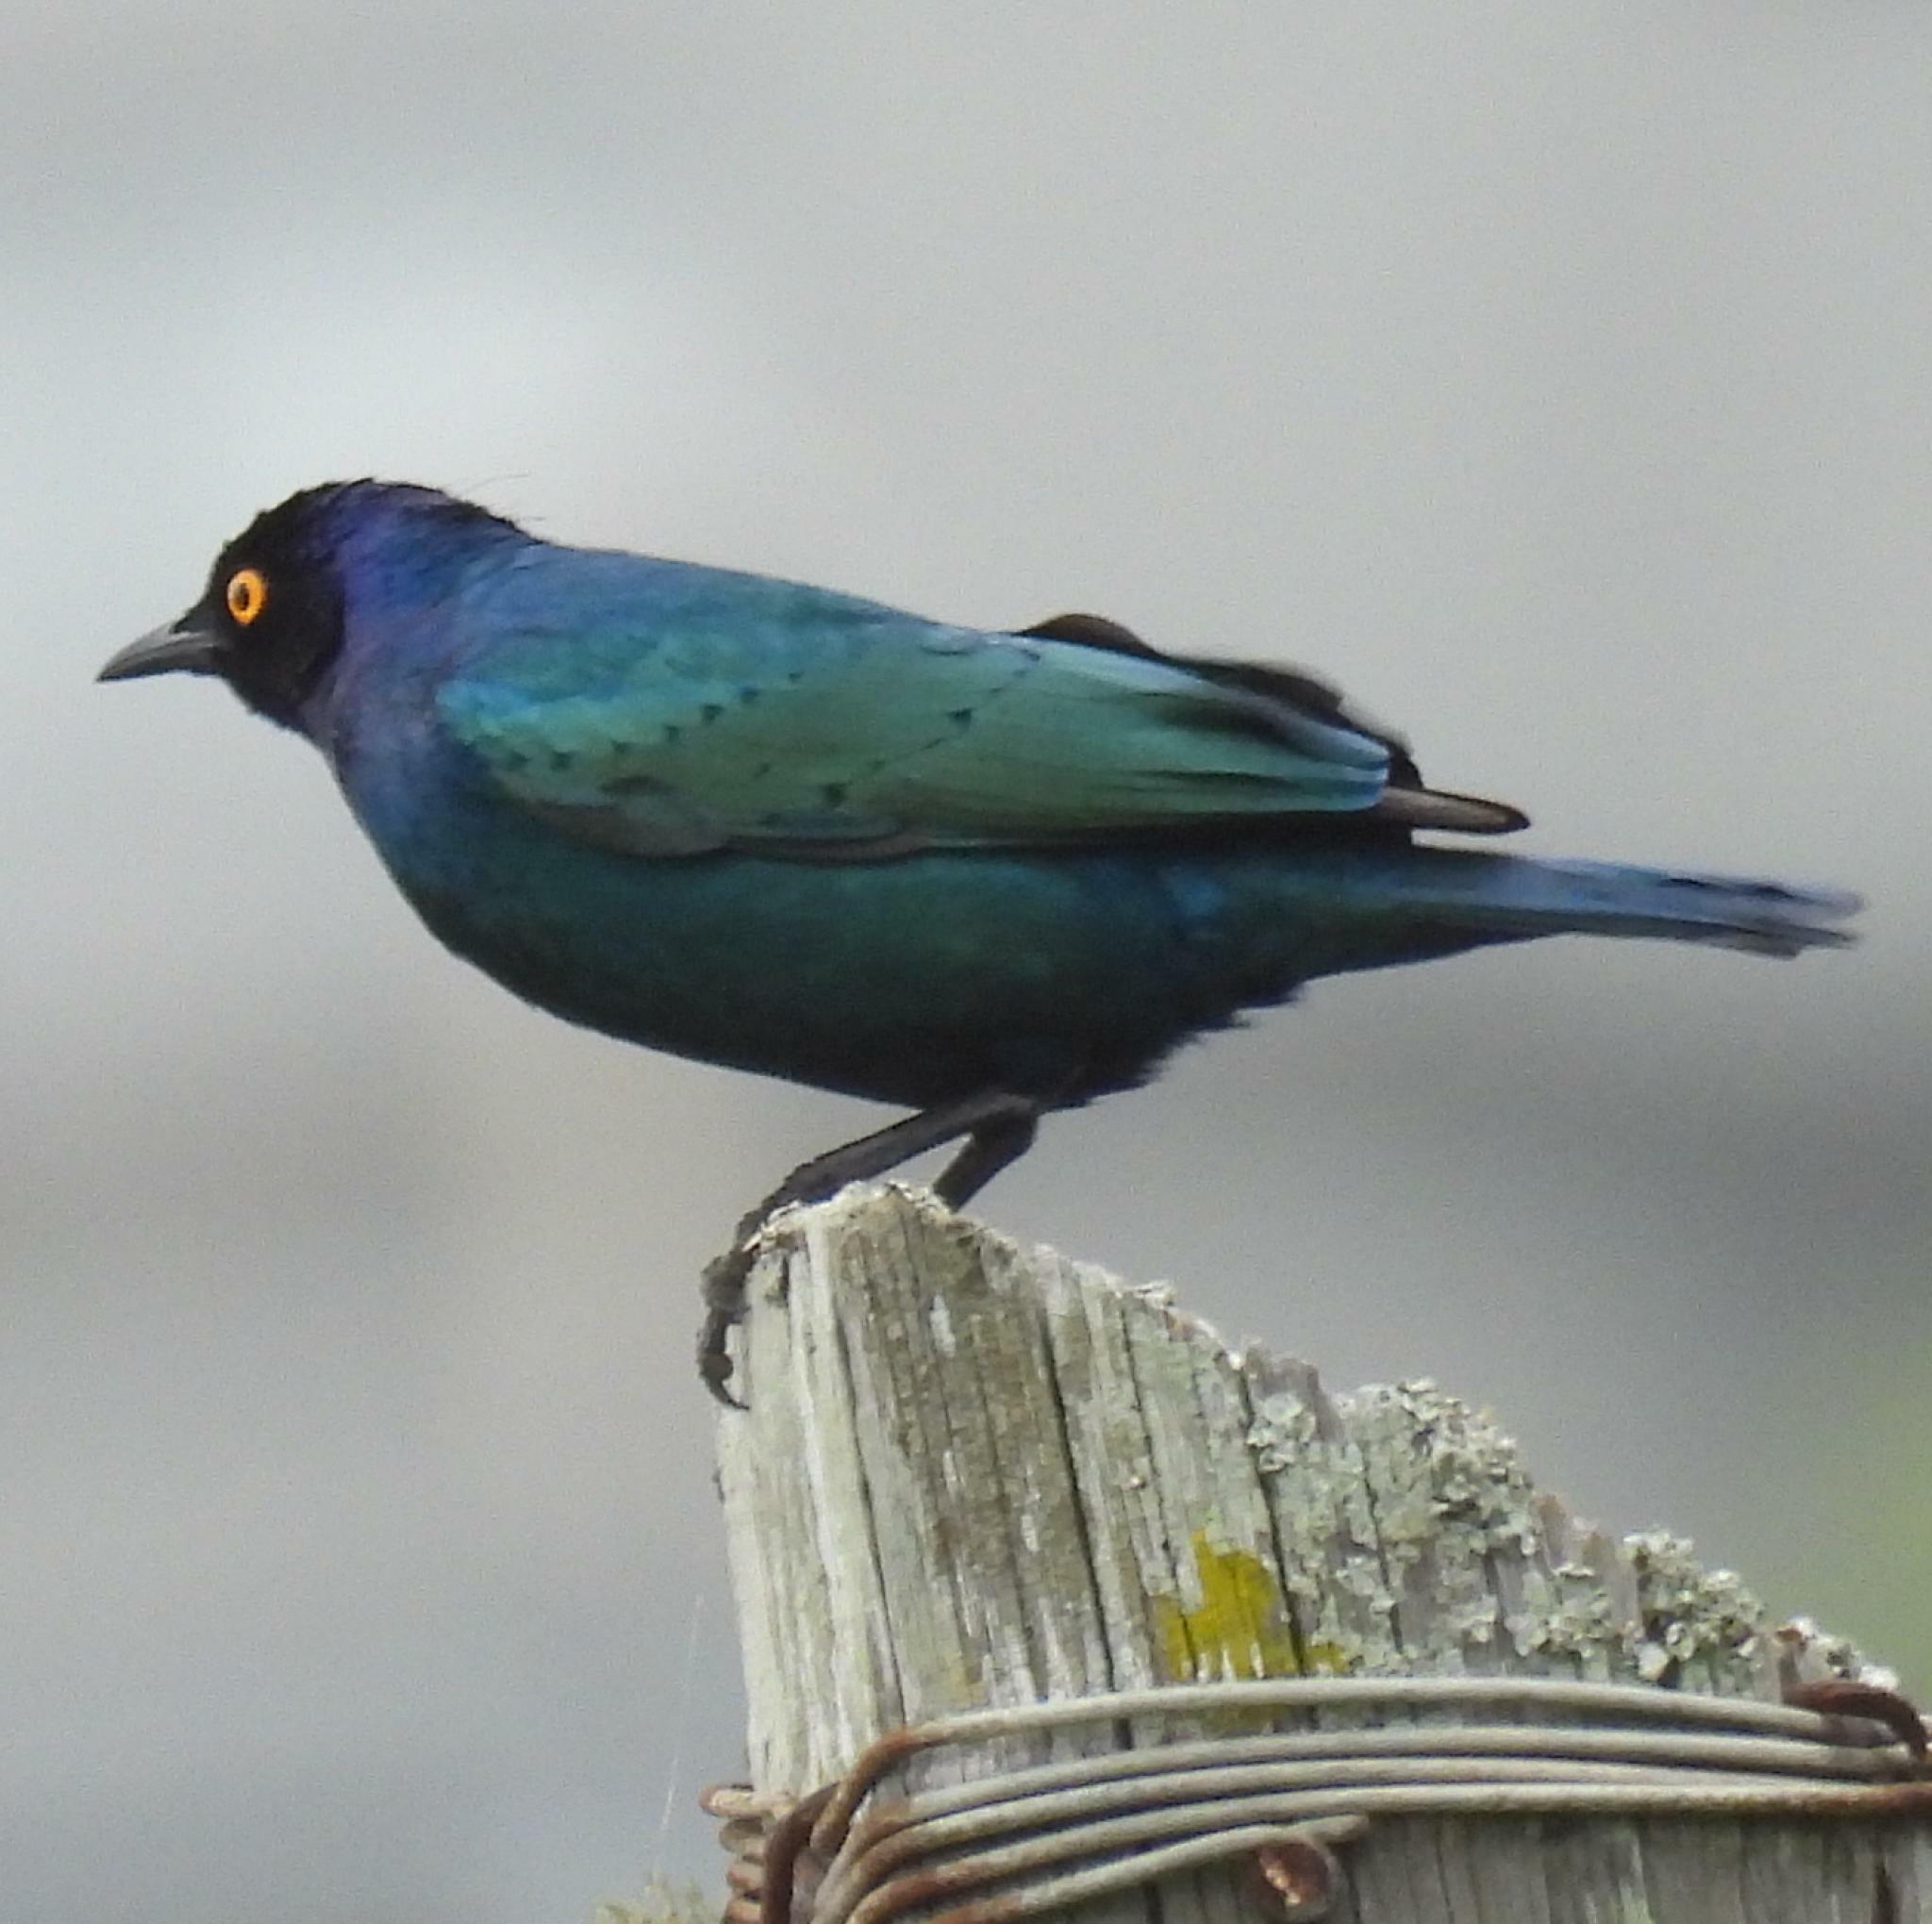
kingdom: Animalia
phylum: Chordata
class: Aves
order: Passeriformes
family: Sturnidae
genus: Lamprotornis
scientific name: Lamprotornis nitens
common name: Cape starling
